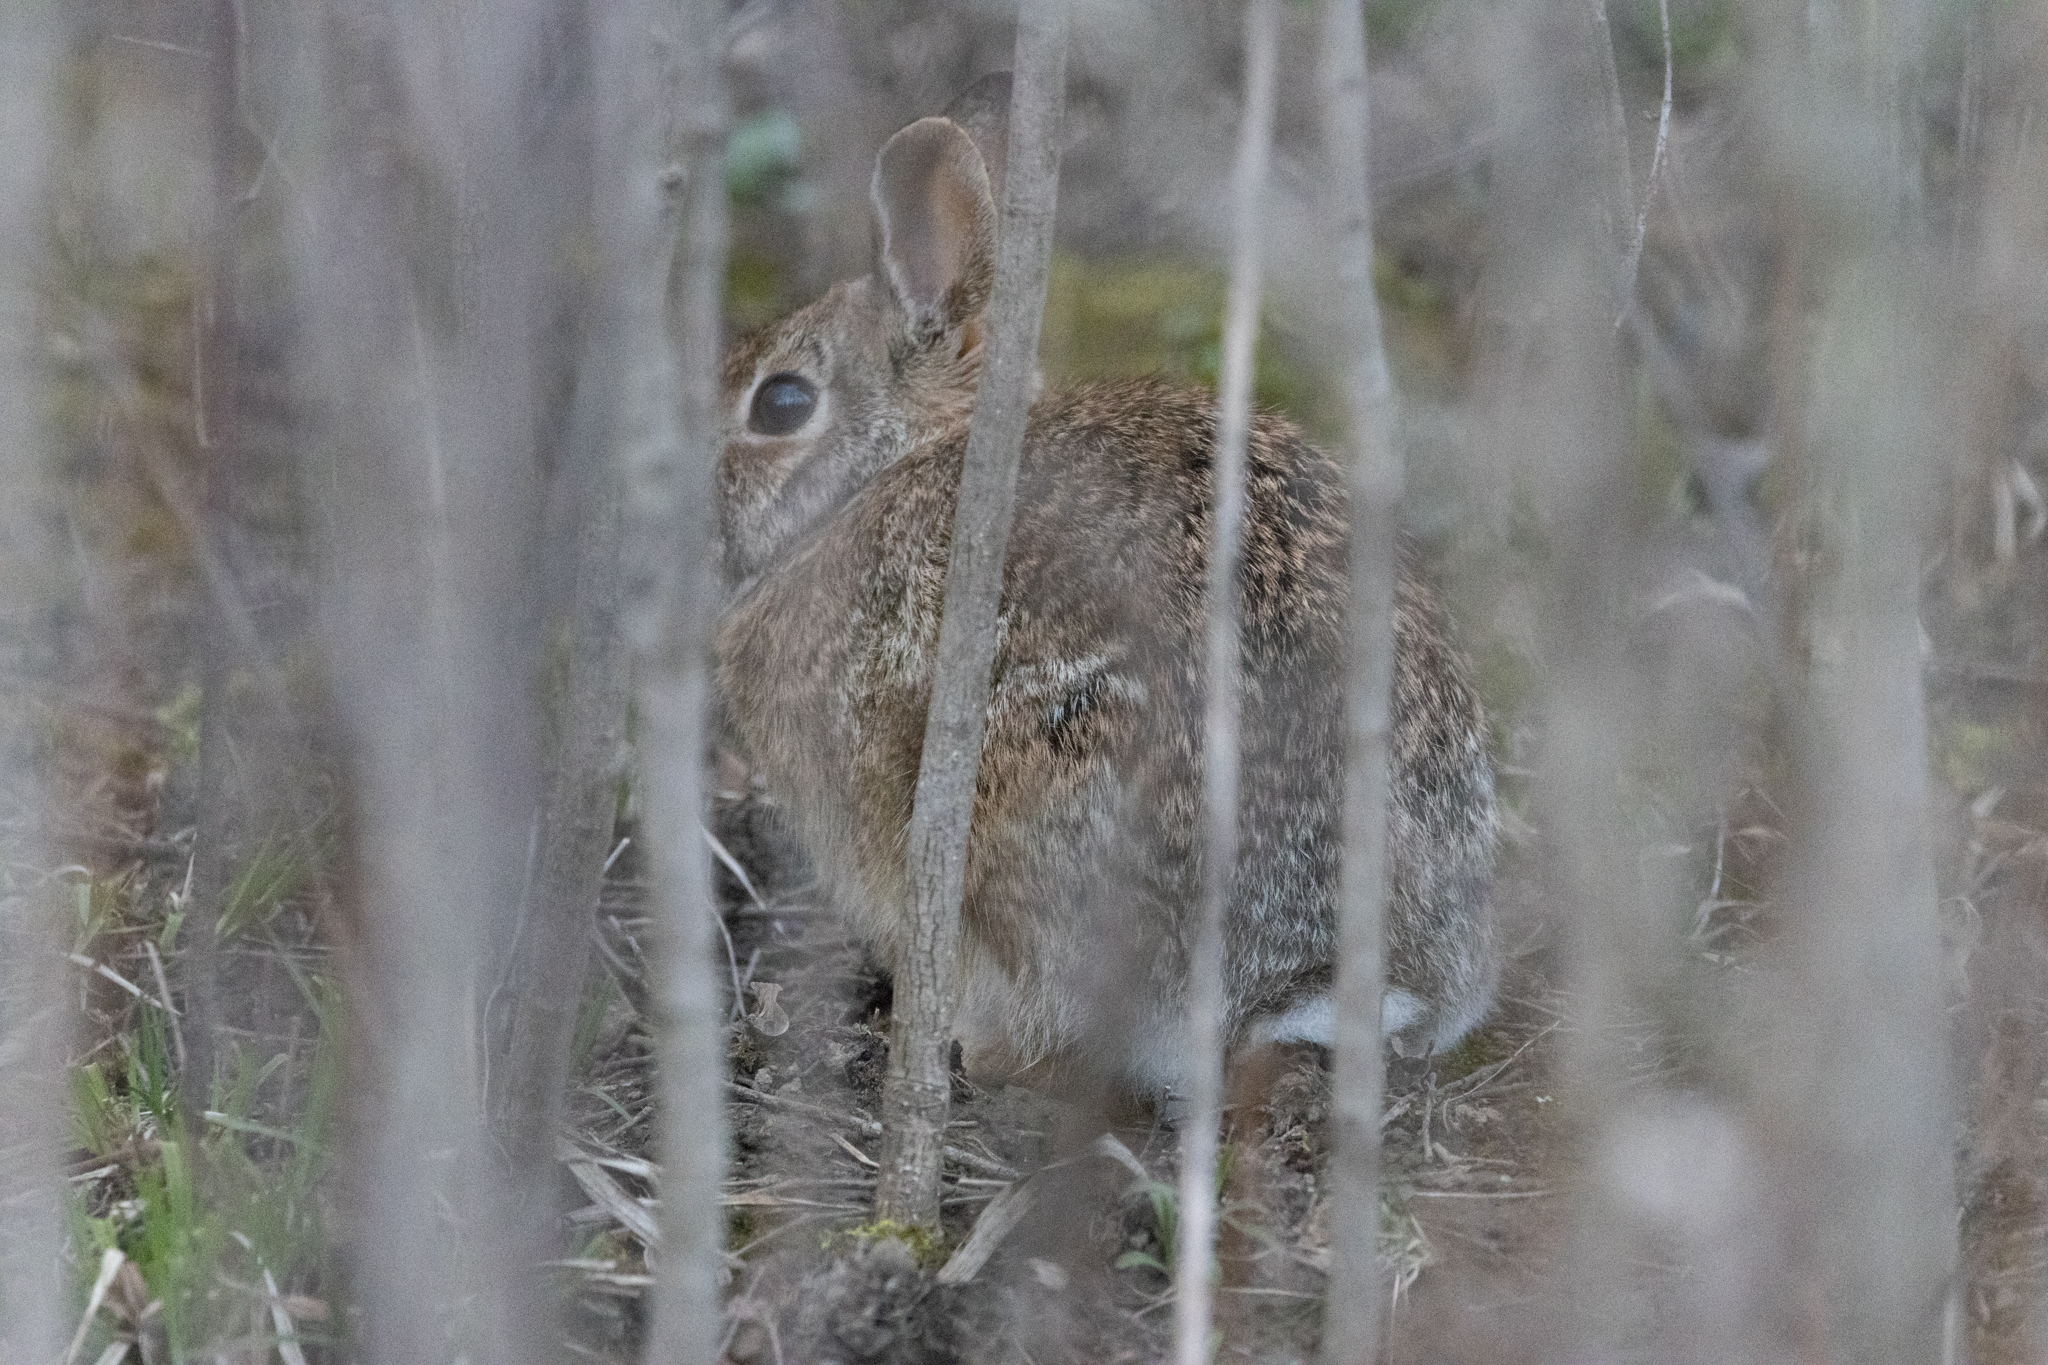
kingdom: Animalia
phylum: Chordata
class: Mammalia
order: Lagomorpha
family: Leporidae
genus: Sylvilagus
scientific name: Sylvilagus floridanus
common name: Eastern cottontail
